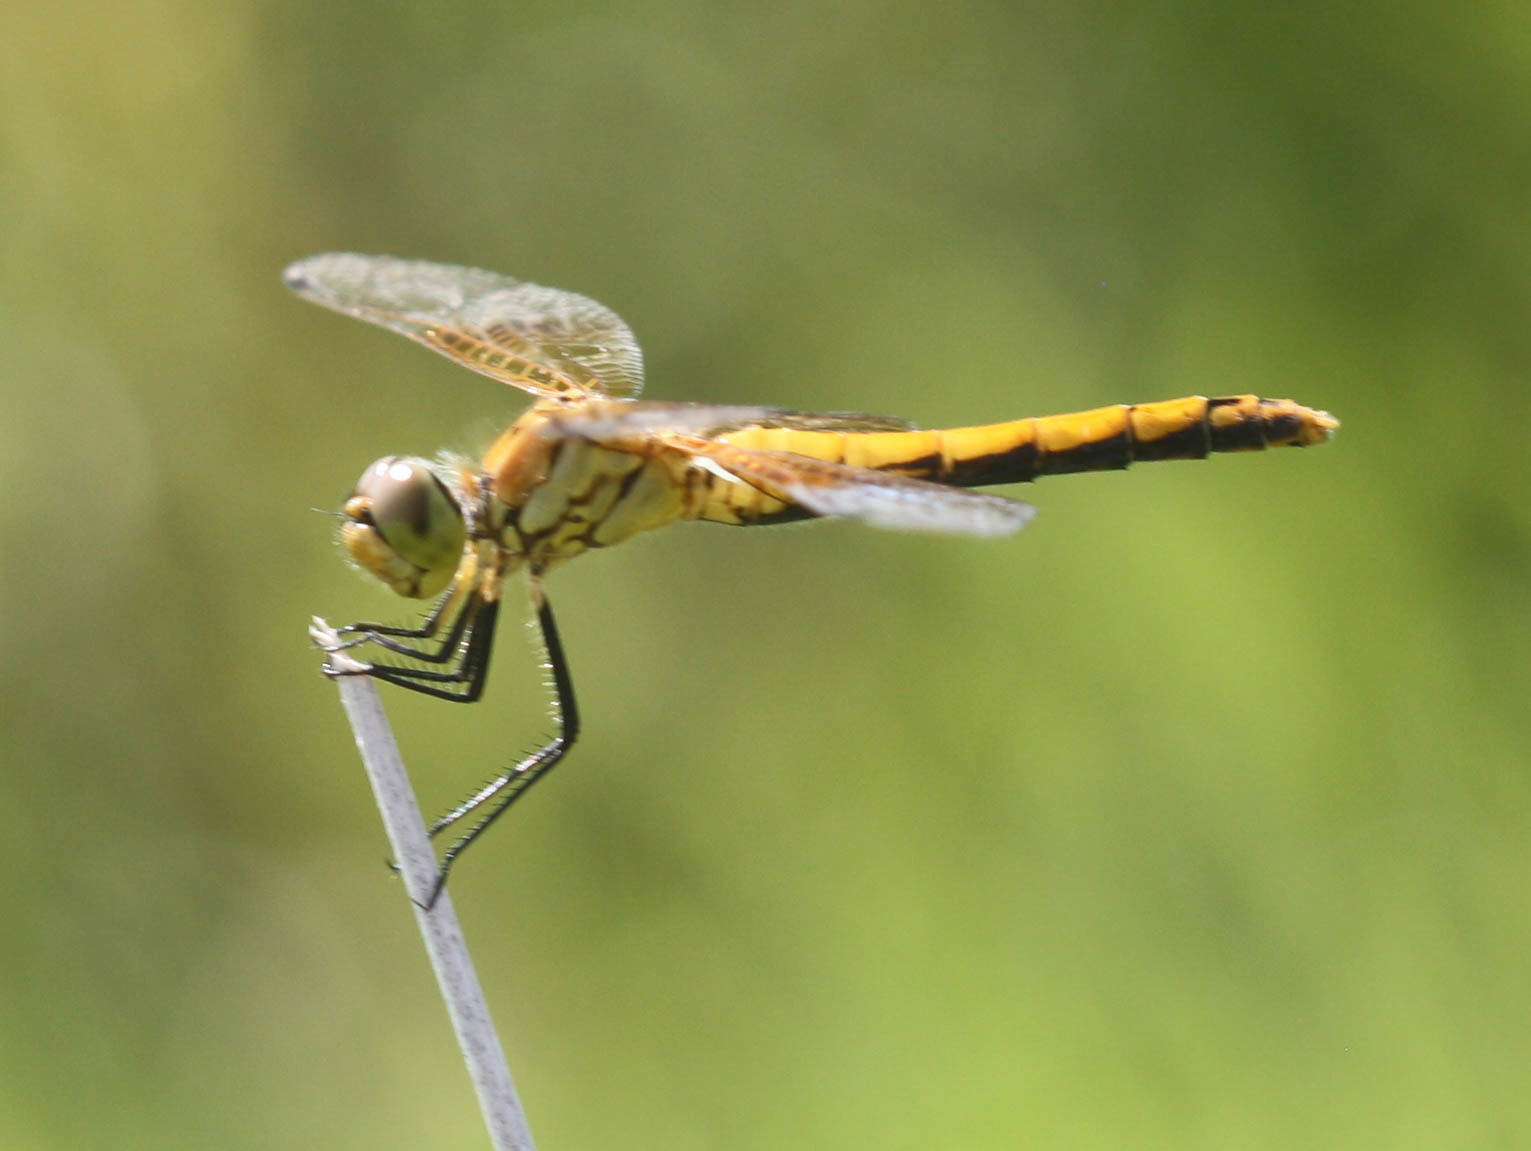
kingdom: Animalia
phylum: Arthropoda
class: Insecta
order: Odonata
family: Libellulidae
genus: Sympetrum
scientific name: Sympetrum semicinctum
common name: Band-winged meadowhawk
